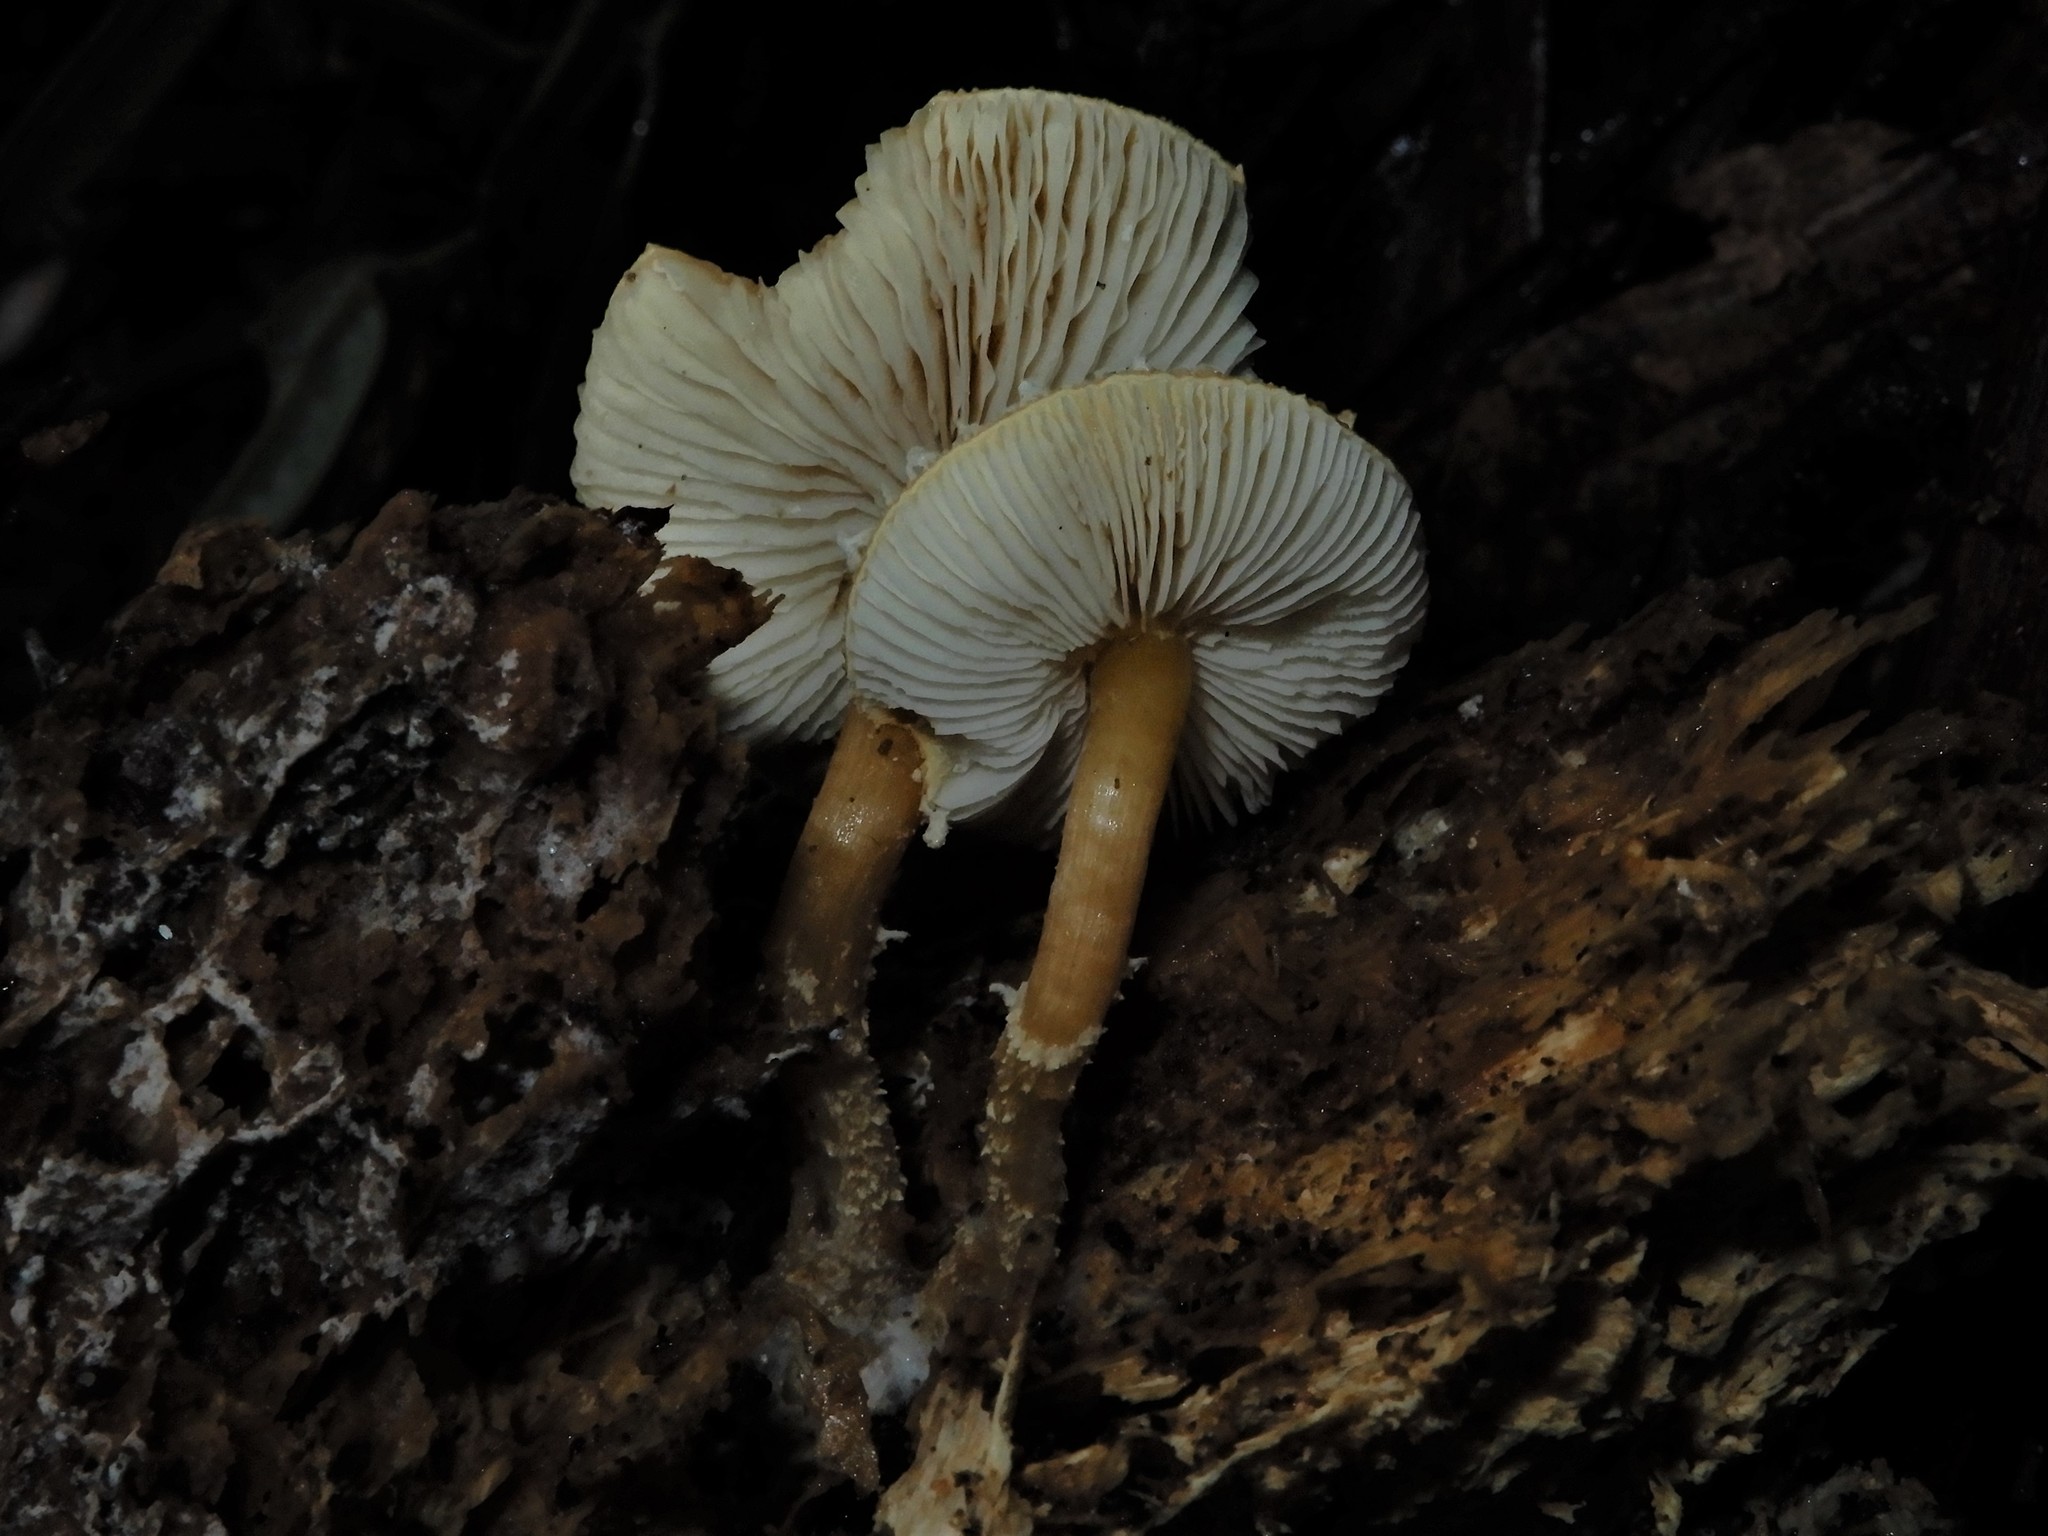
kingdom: Fungi
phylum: Basidiomycota
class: Agaricomycetes
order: Agaricales
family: Tricholomataceae
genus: Cystoderma
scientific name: Cystoderma clastotrichum
